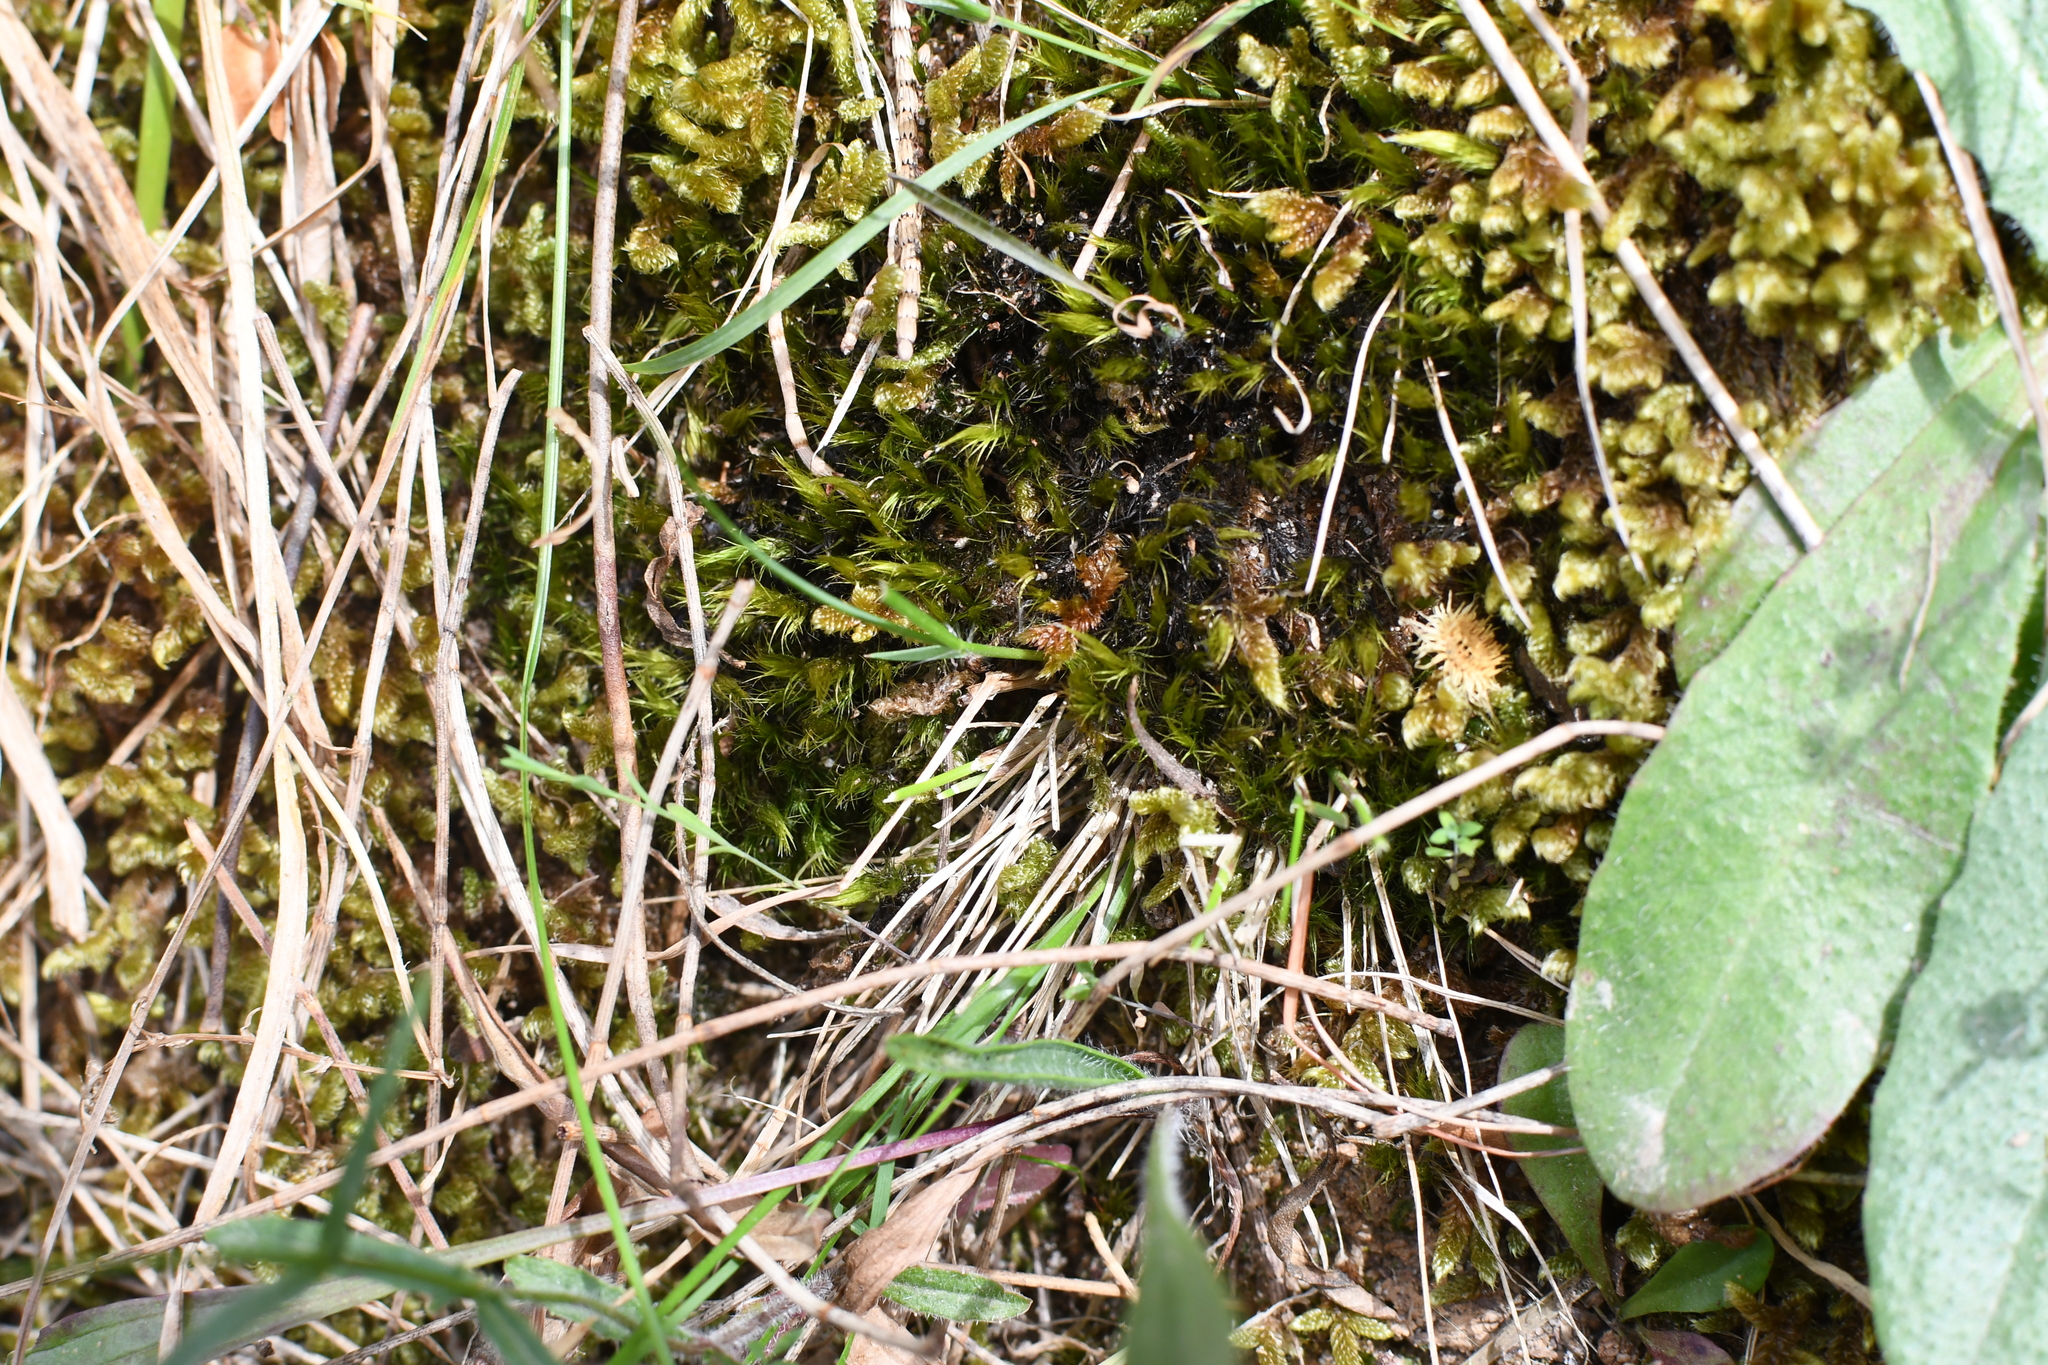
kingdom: Plantae
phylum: Bryophyta
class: Bryopsida
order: Dicranales
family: Leucobryaceae
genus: Campylopus
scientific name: Campylopus pyriformis
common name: Dwarf swan-neck moss
